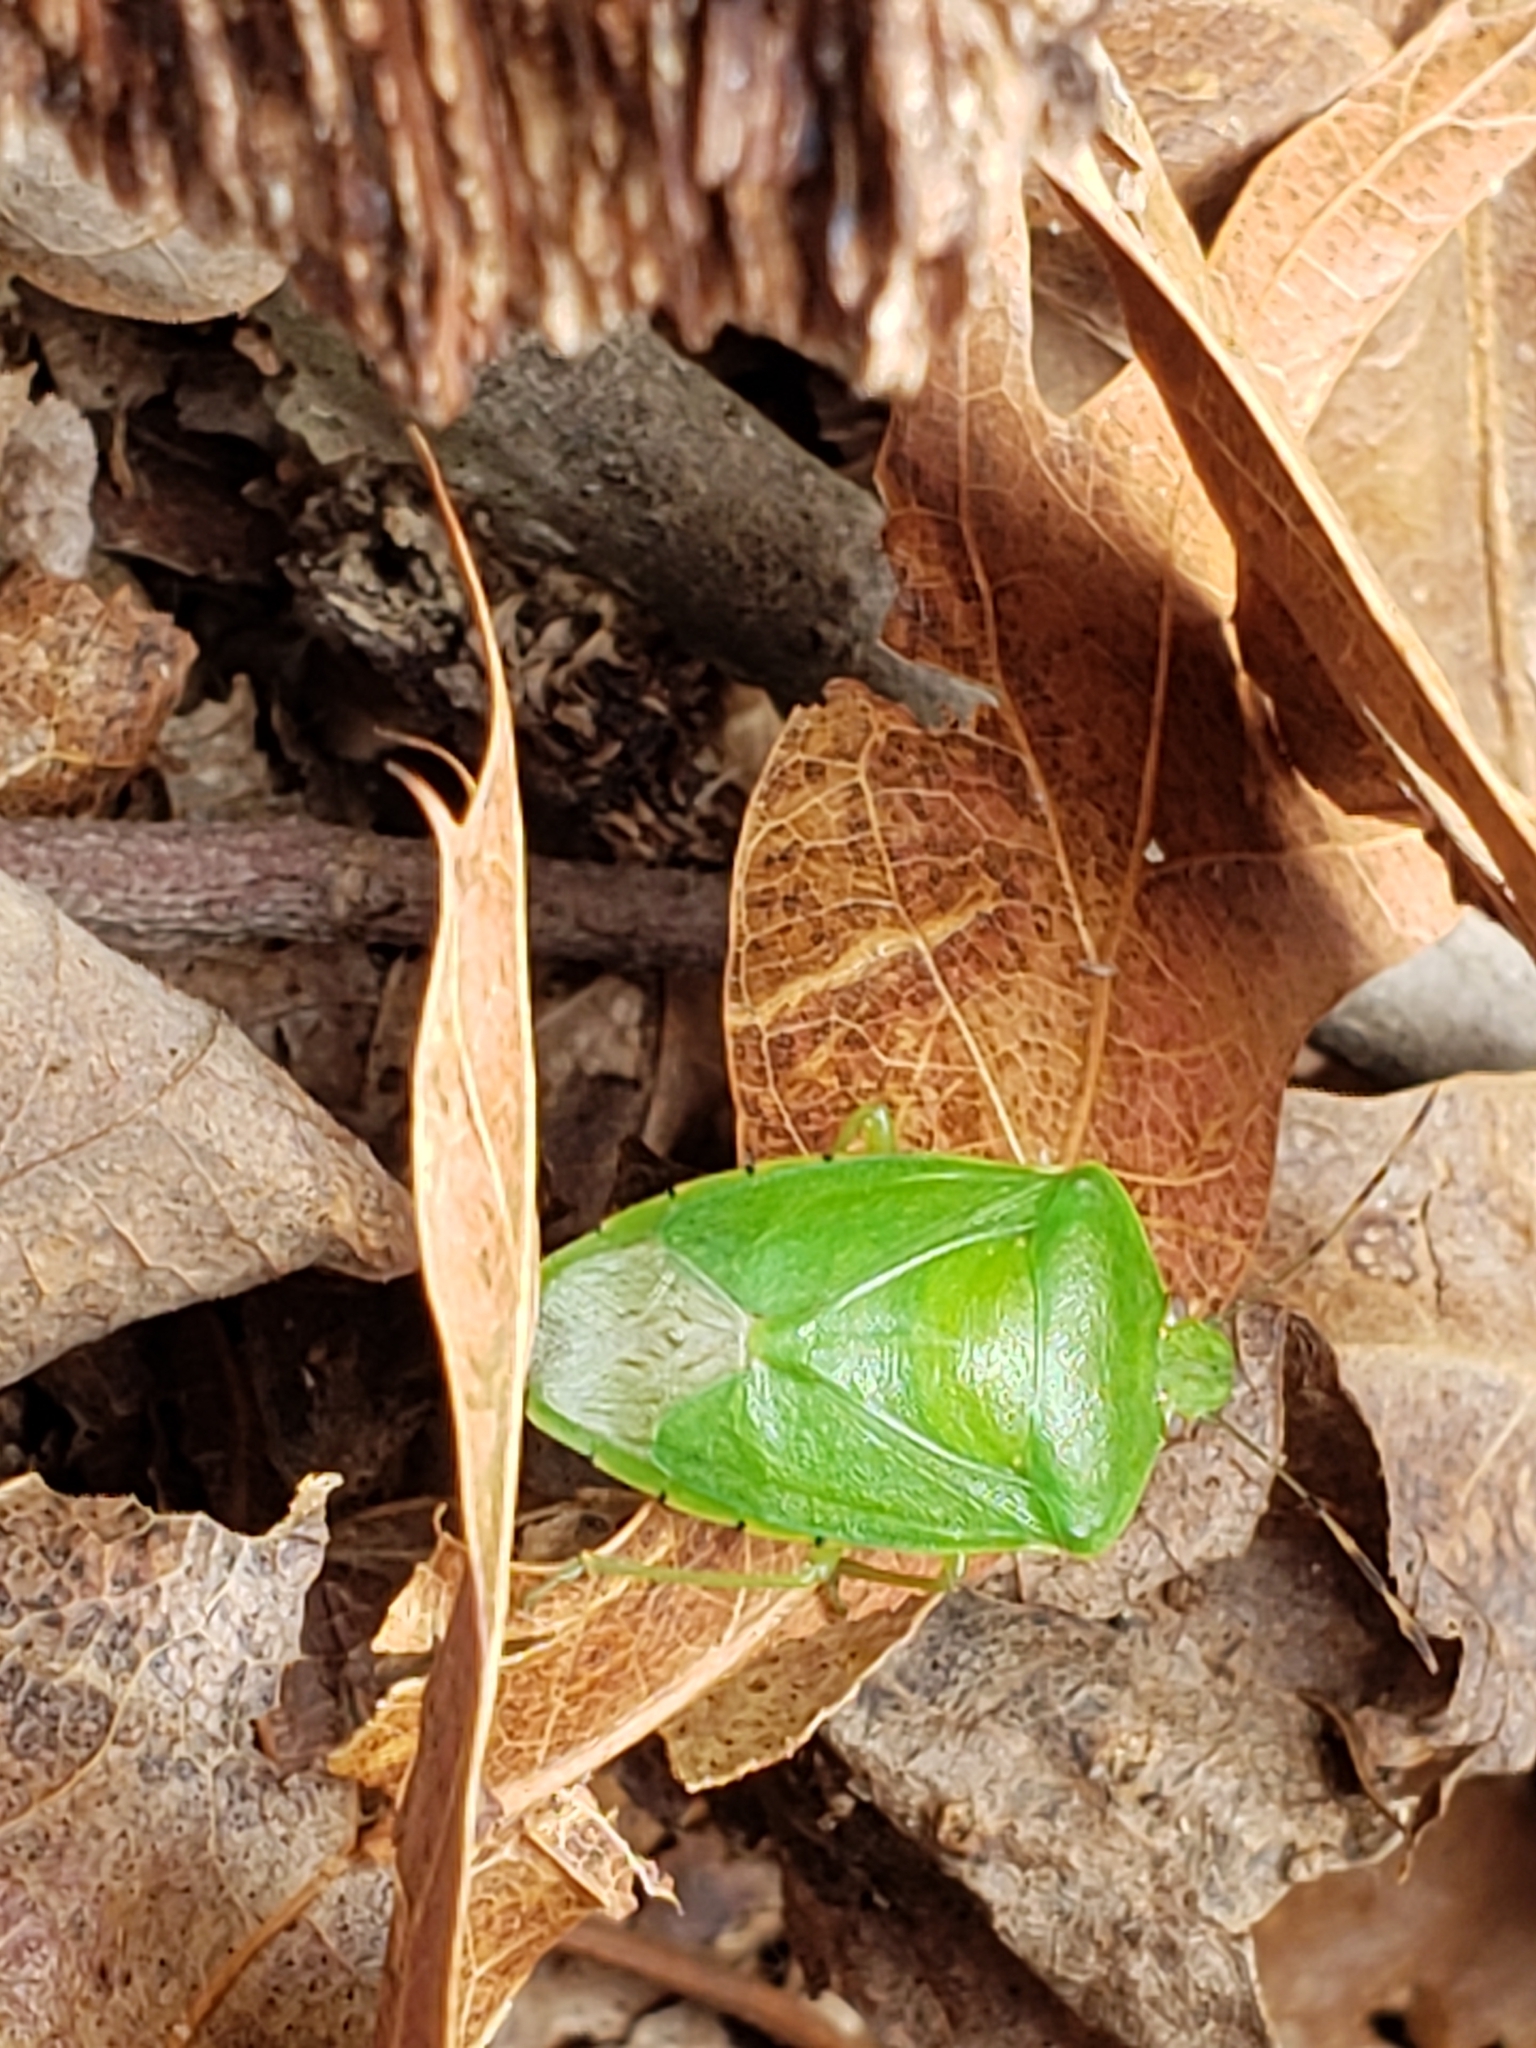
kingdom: Animalia
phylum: Arthropoda
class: Insecta
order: Hemiptera
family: Pentatomidae
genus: Chinavia
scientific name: Chinavia hilaris
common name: Green stink bug
